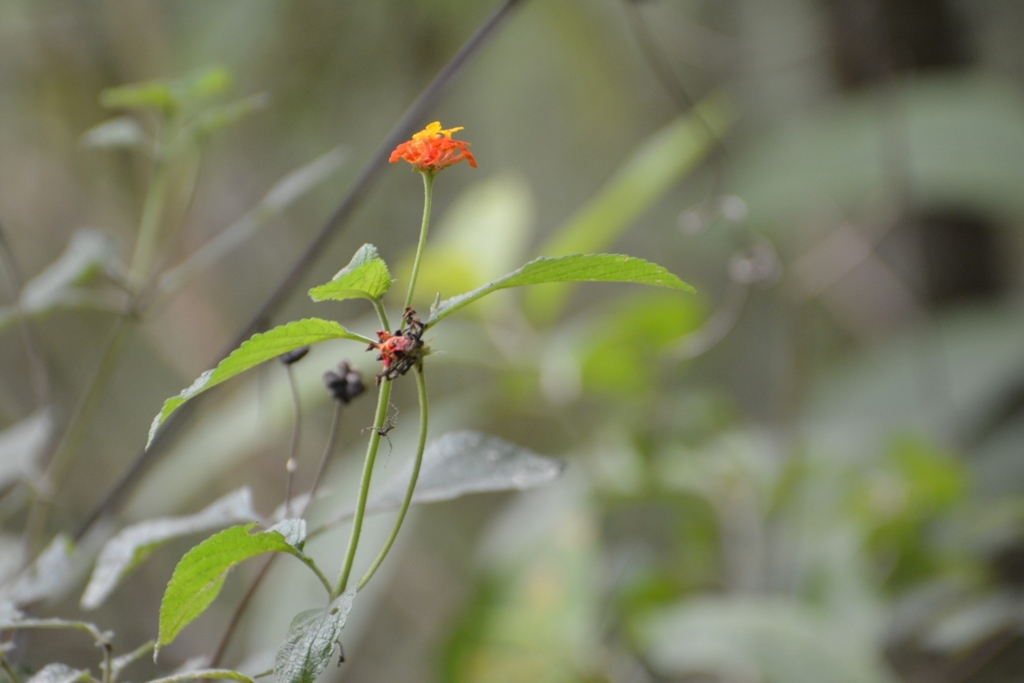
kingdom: Plantae
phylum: Tracheophyta
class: Magnoliopsida
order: Lamiales
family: Verbenaceae
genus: Lantana
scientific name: Lantana camara
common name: Lantana
